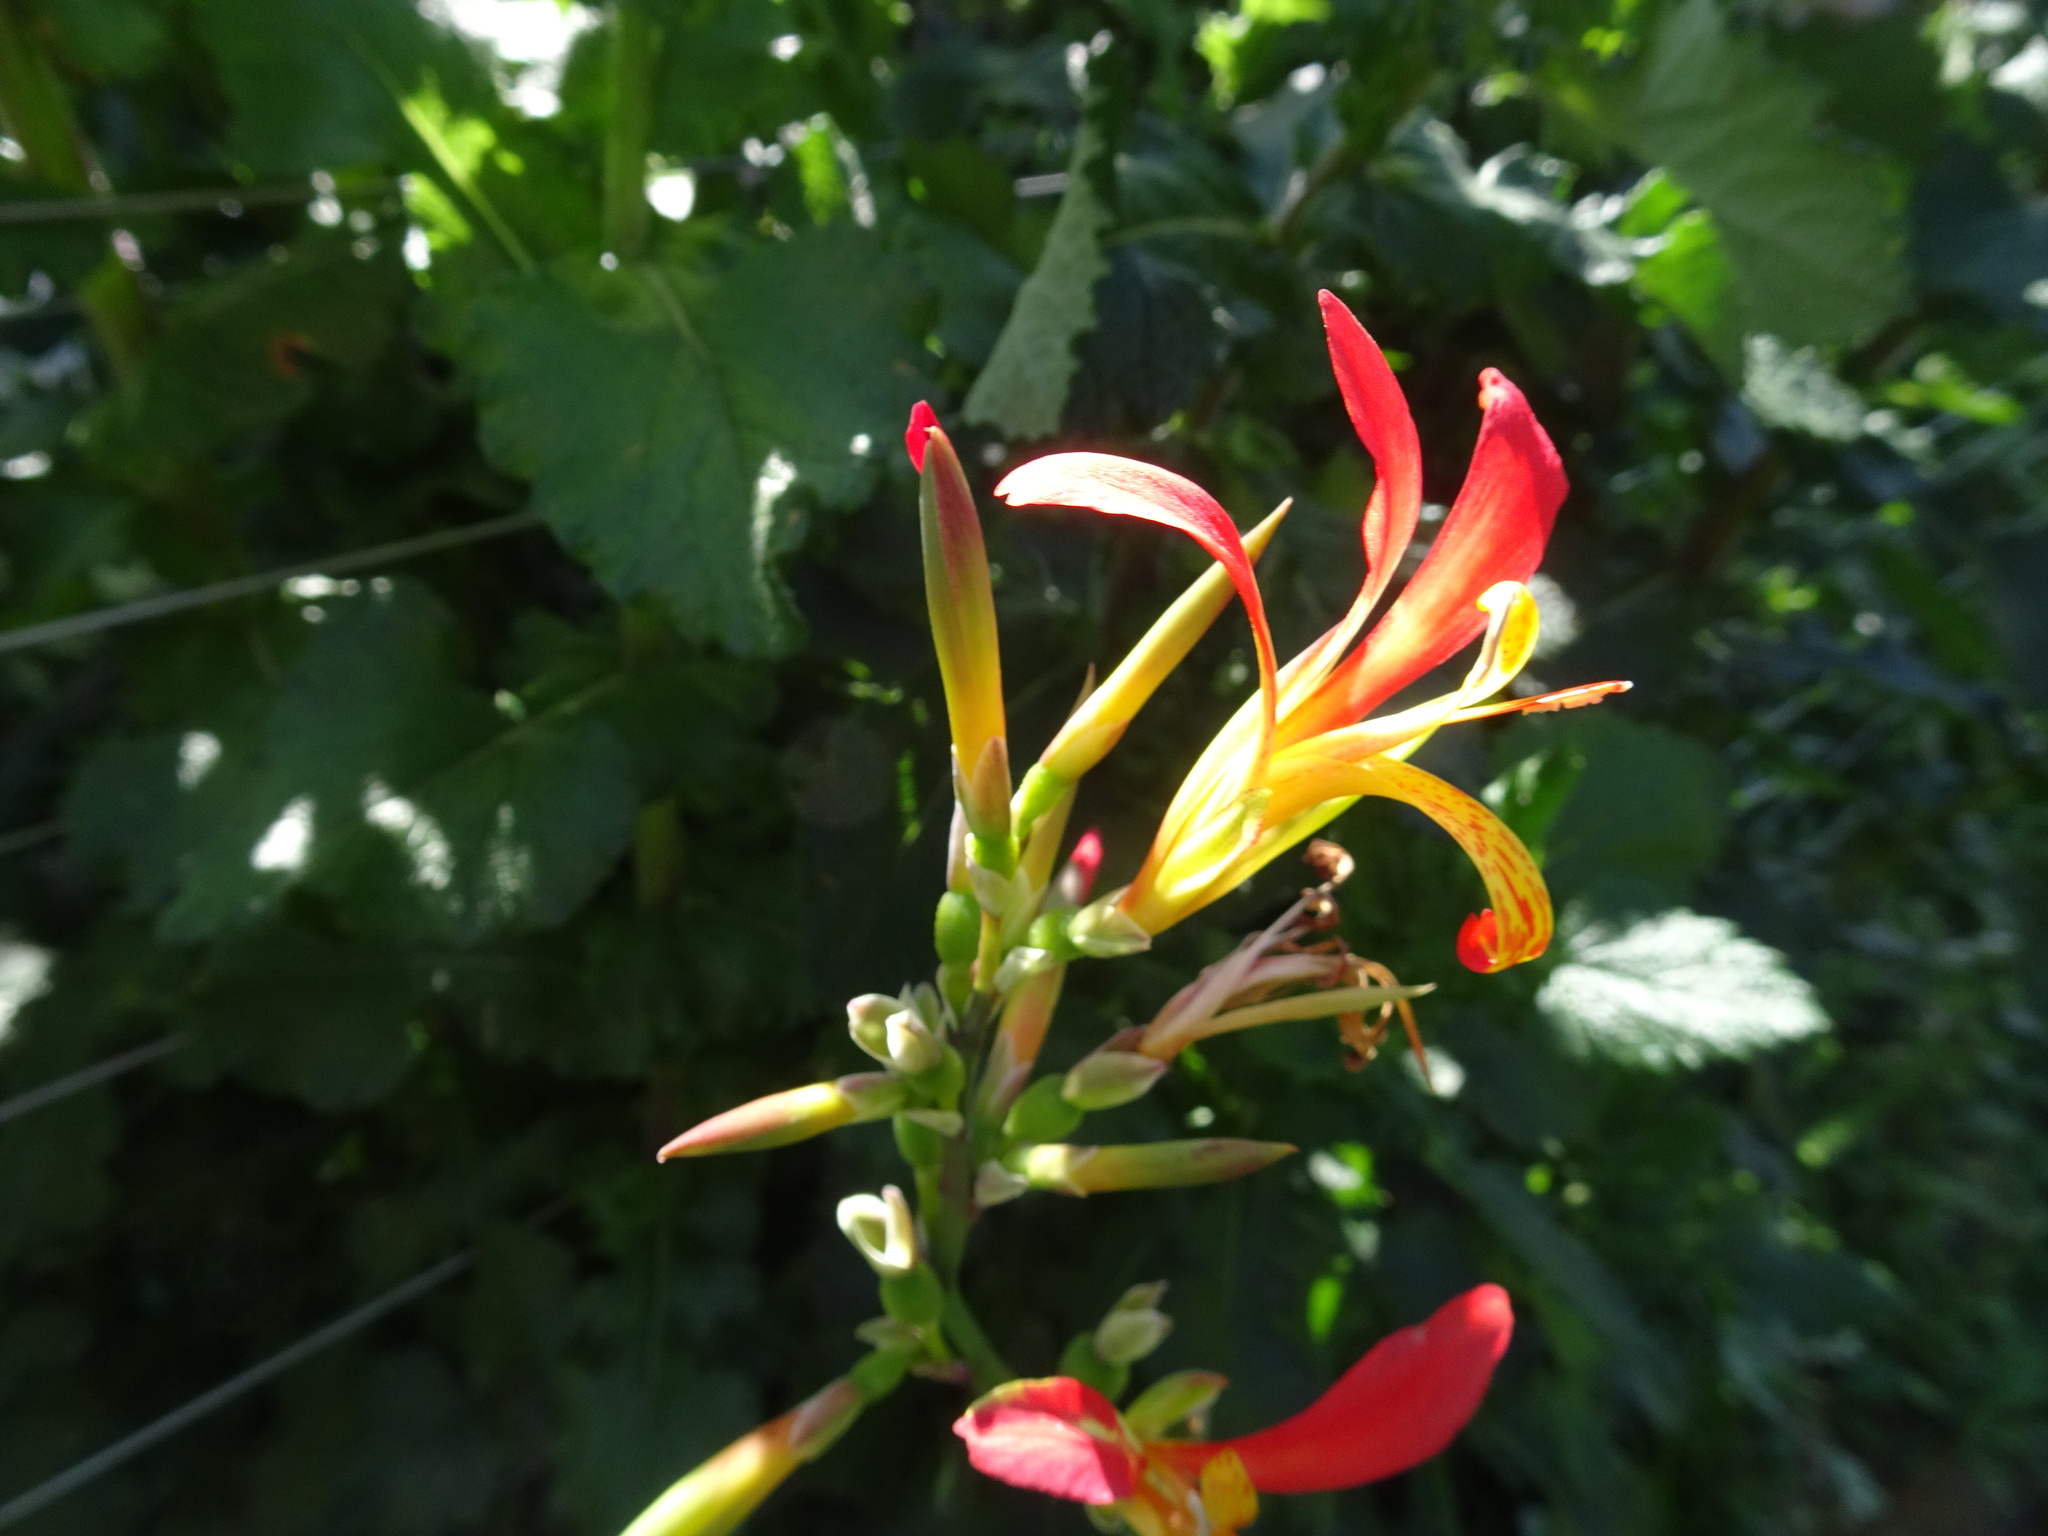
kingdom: Plantae
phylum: Tracheophyta
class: Liliopsida
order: Zingiberales
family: Cannaceae
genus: Canna
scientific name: Canna indica
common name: Indian shot
